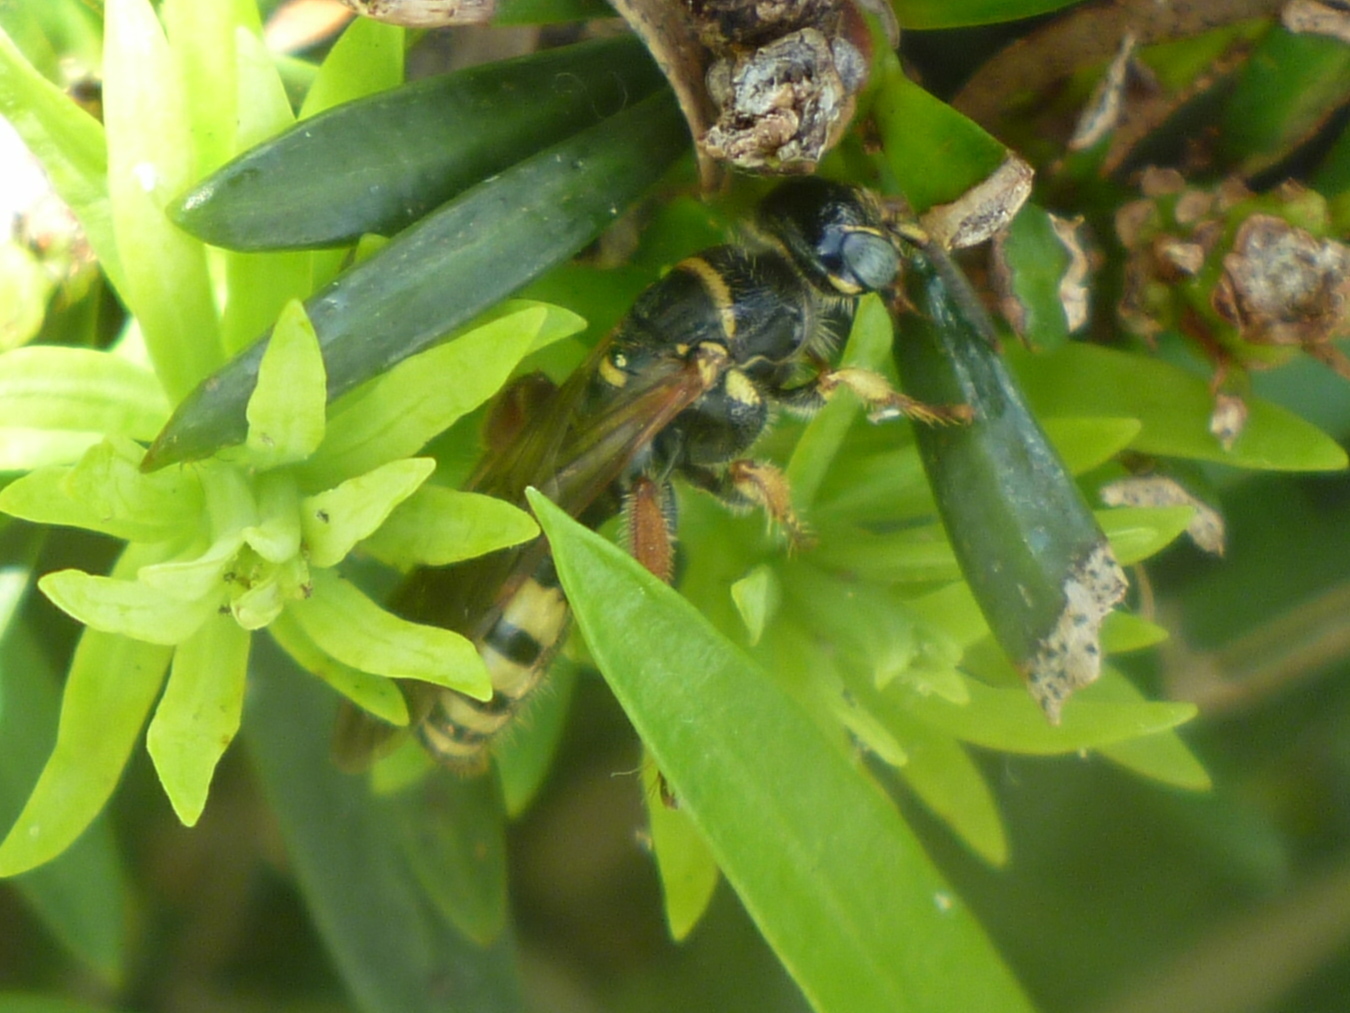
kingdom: Animalia
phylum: Arthropoda
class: Insecta
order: Hymenoptera
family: Tiphiidae
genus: Myzinum
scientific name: Myzinum carolinianum
